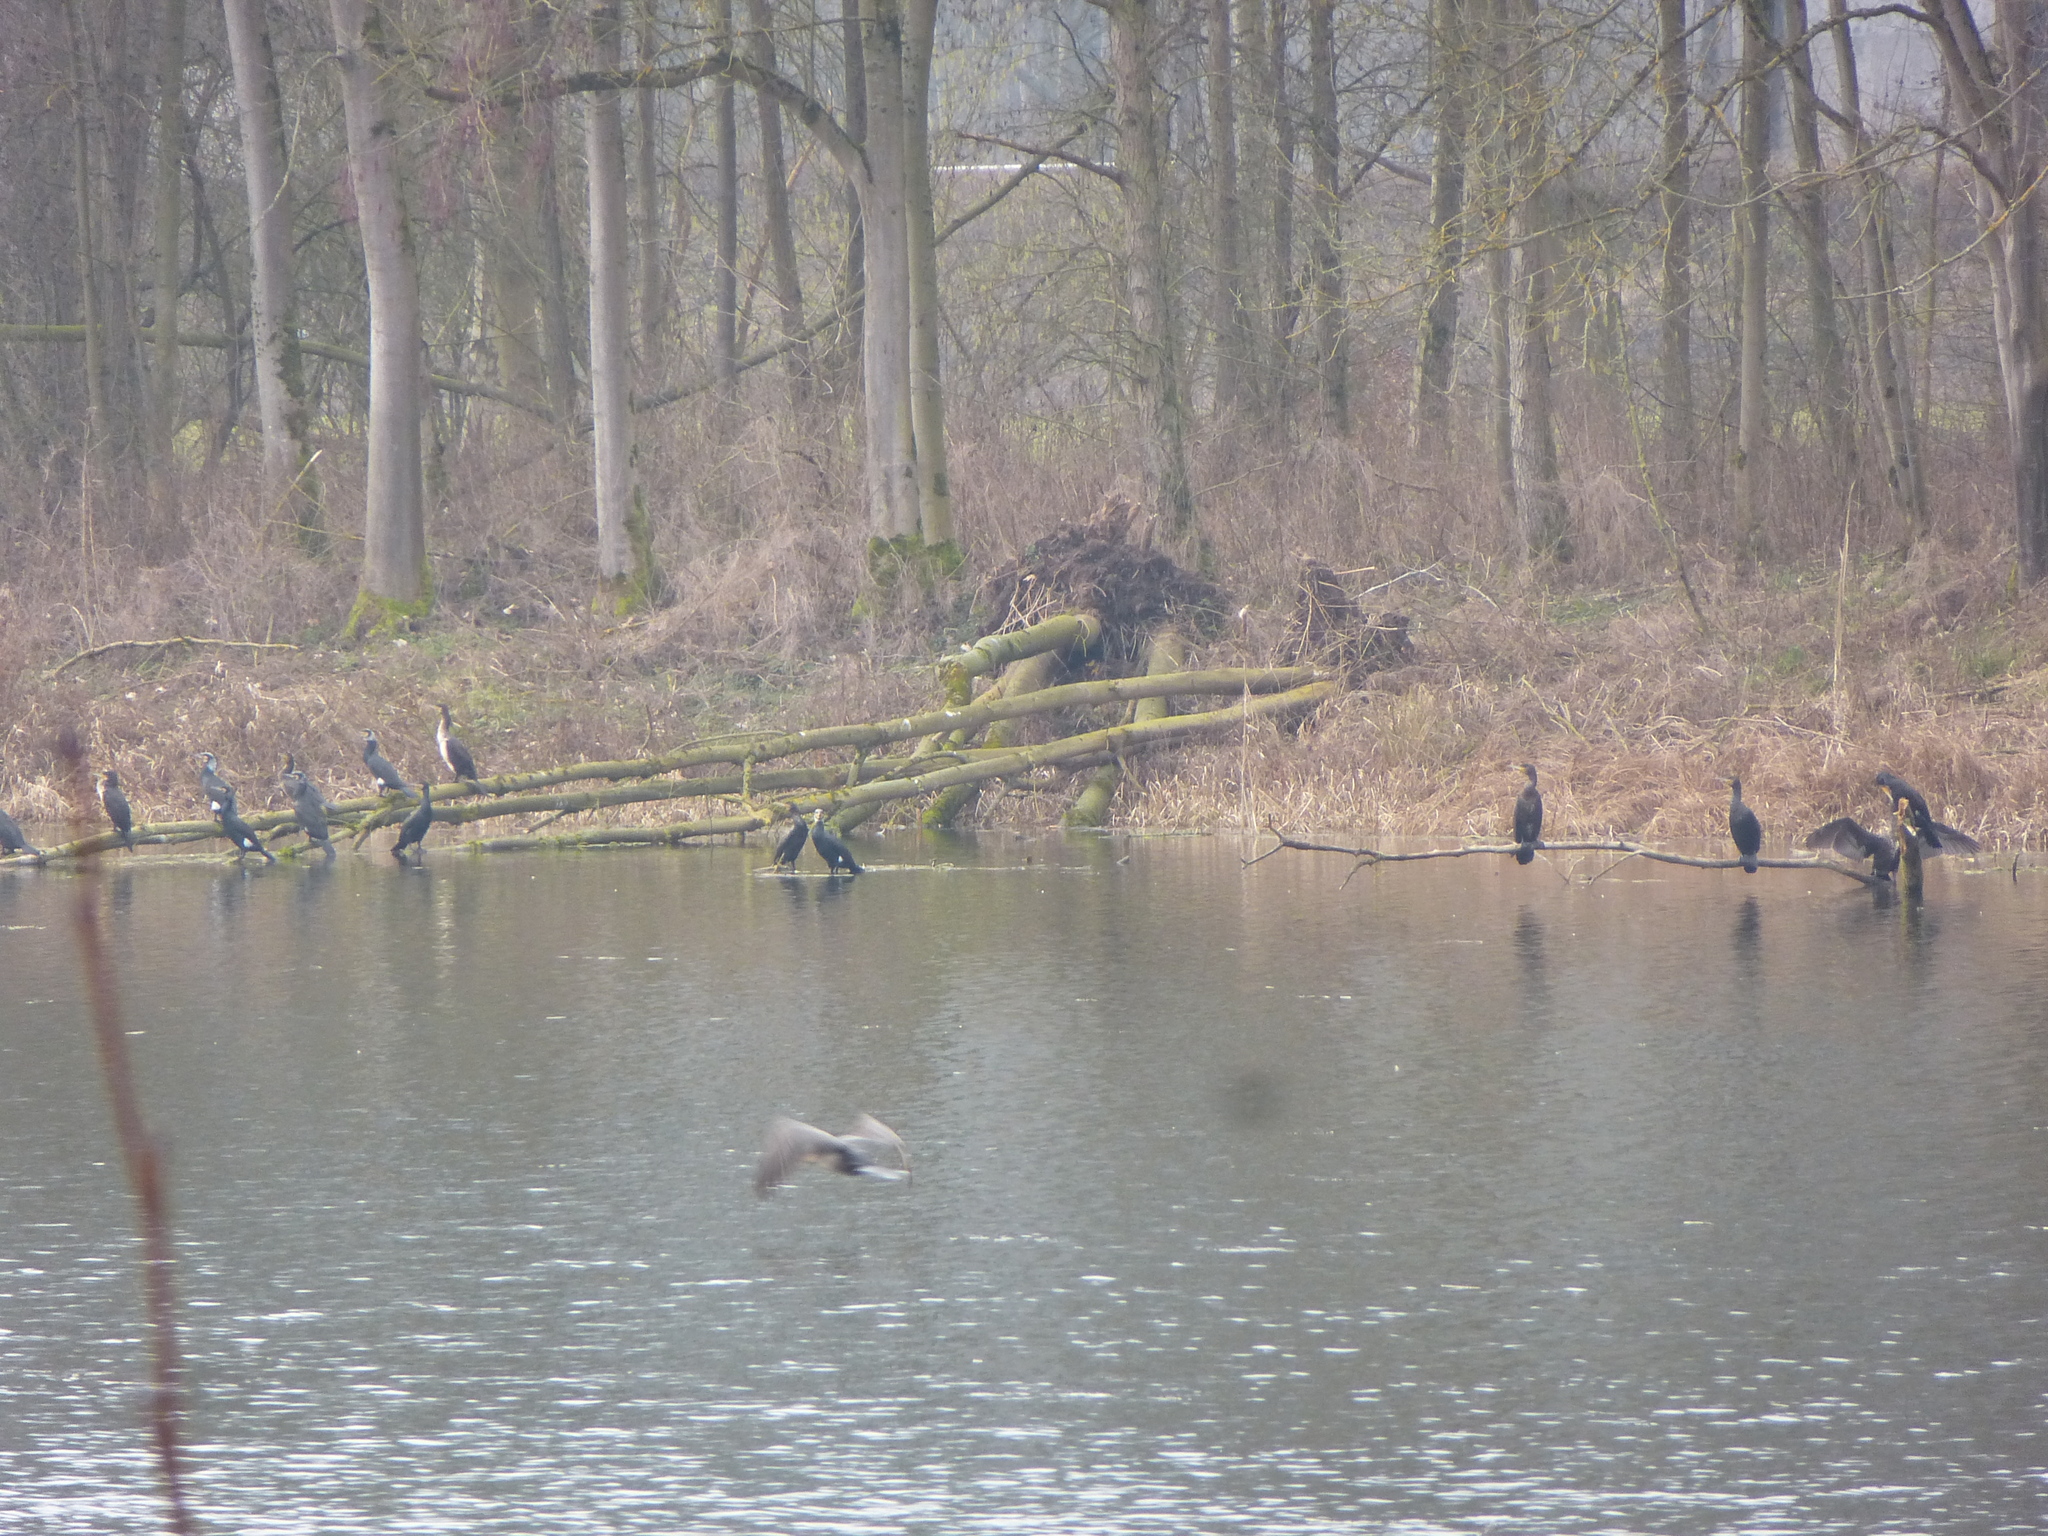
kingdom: Animalia
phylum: Chordata
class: Aves
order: Suliformes
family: Phalacrocoracidae
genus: Phalacrocorax
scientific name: Phalacrocorax carbo
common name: Great cormorant
